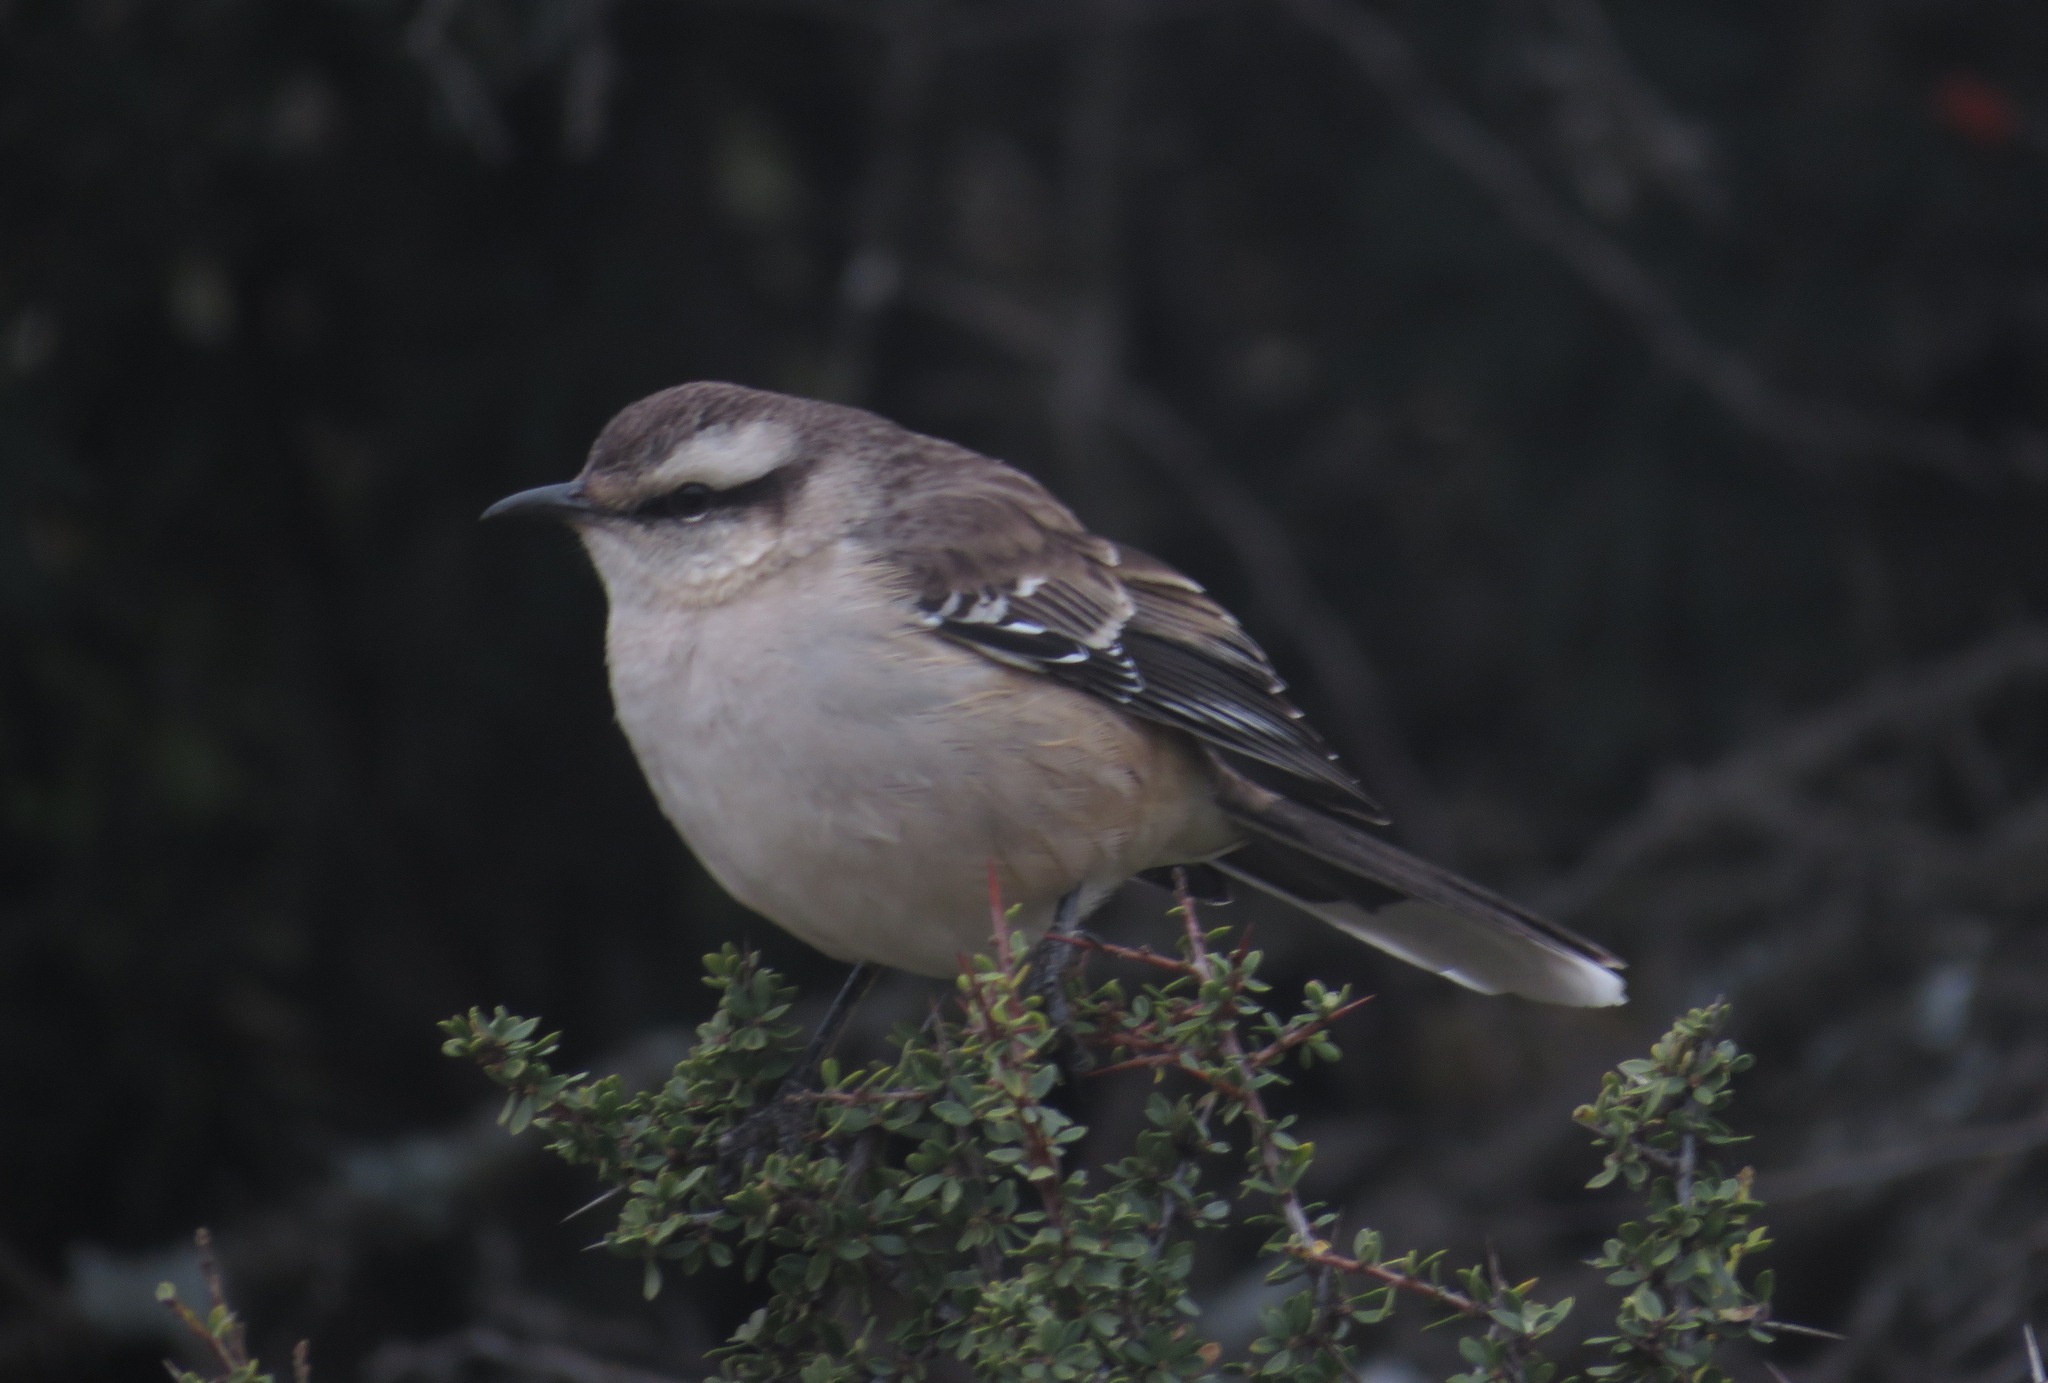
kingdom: Animalia
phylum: Chordata
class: Aves
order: Passeriformes
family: Mimidae
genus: Mimus
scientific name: Mimus saturninus
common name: Chalk-browed mockingbird
